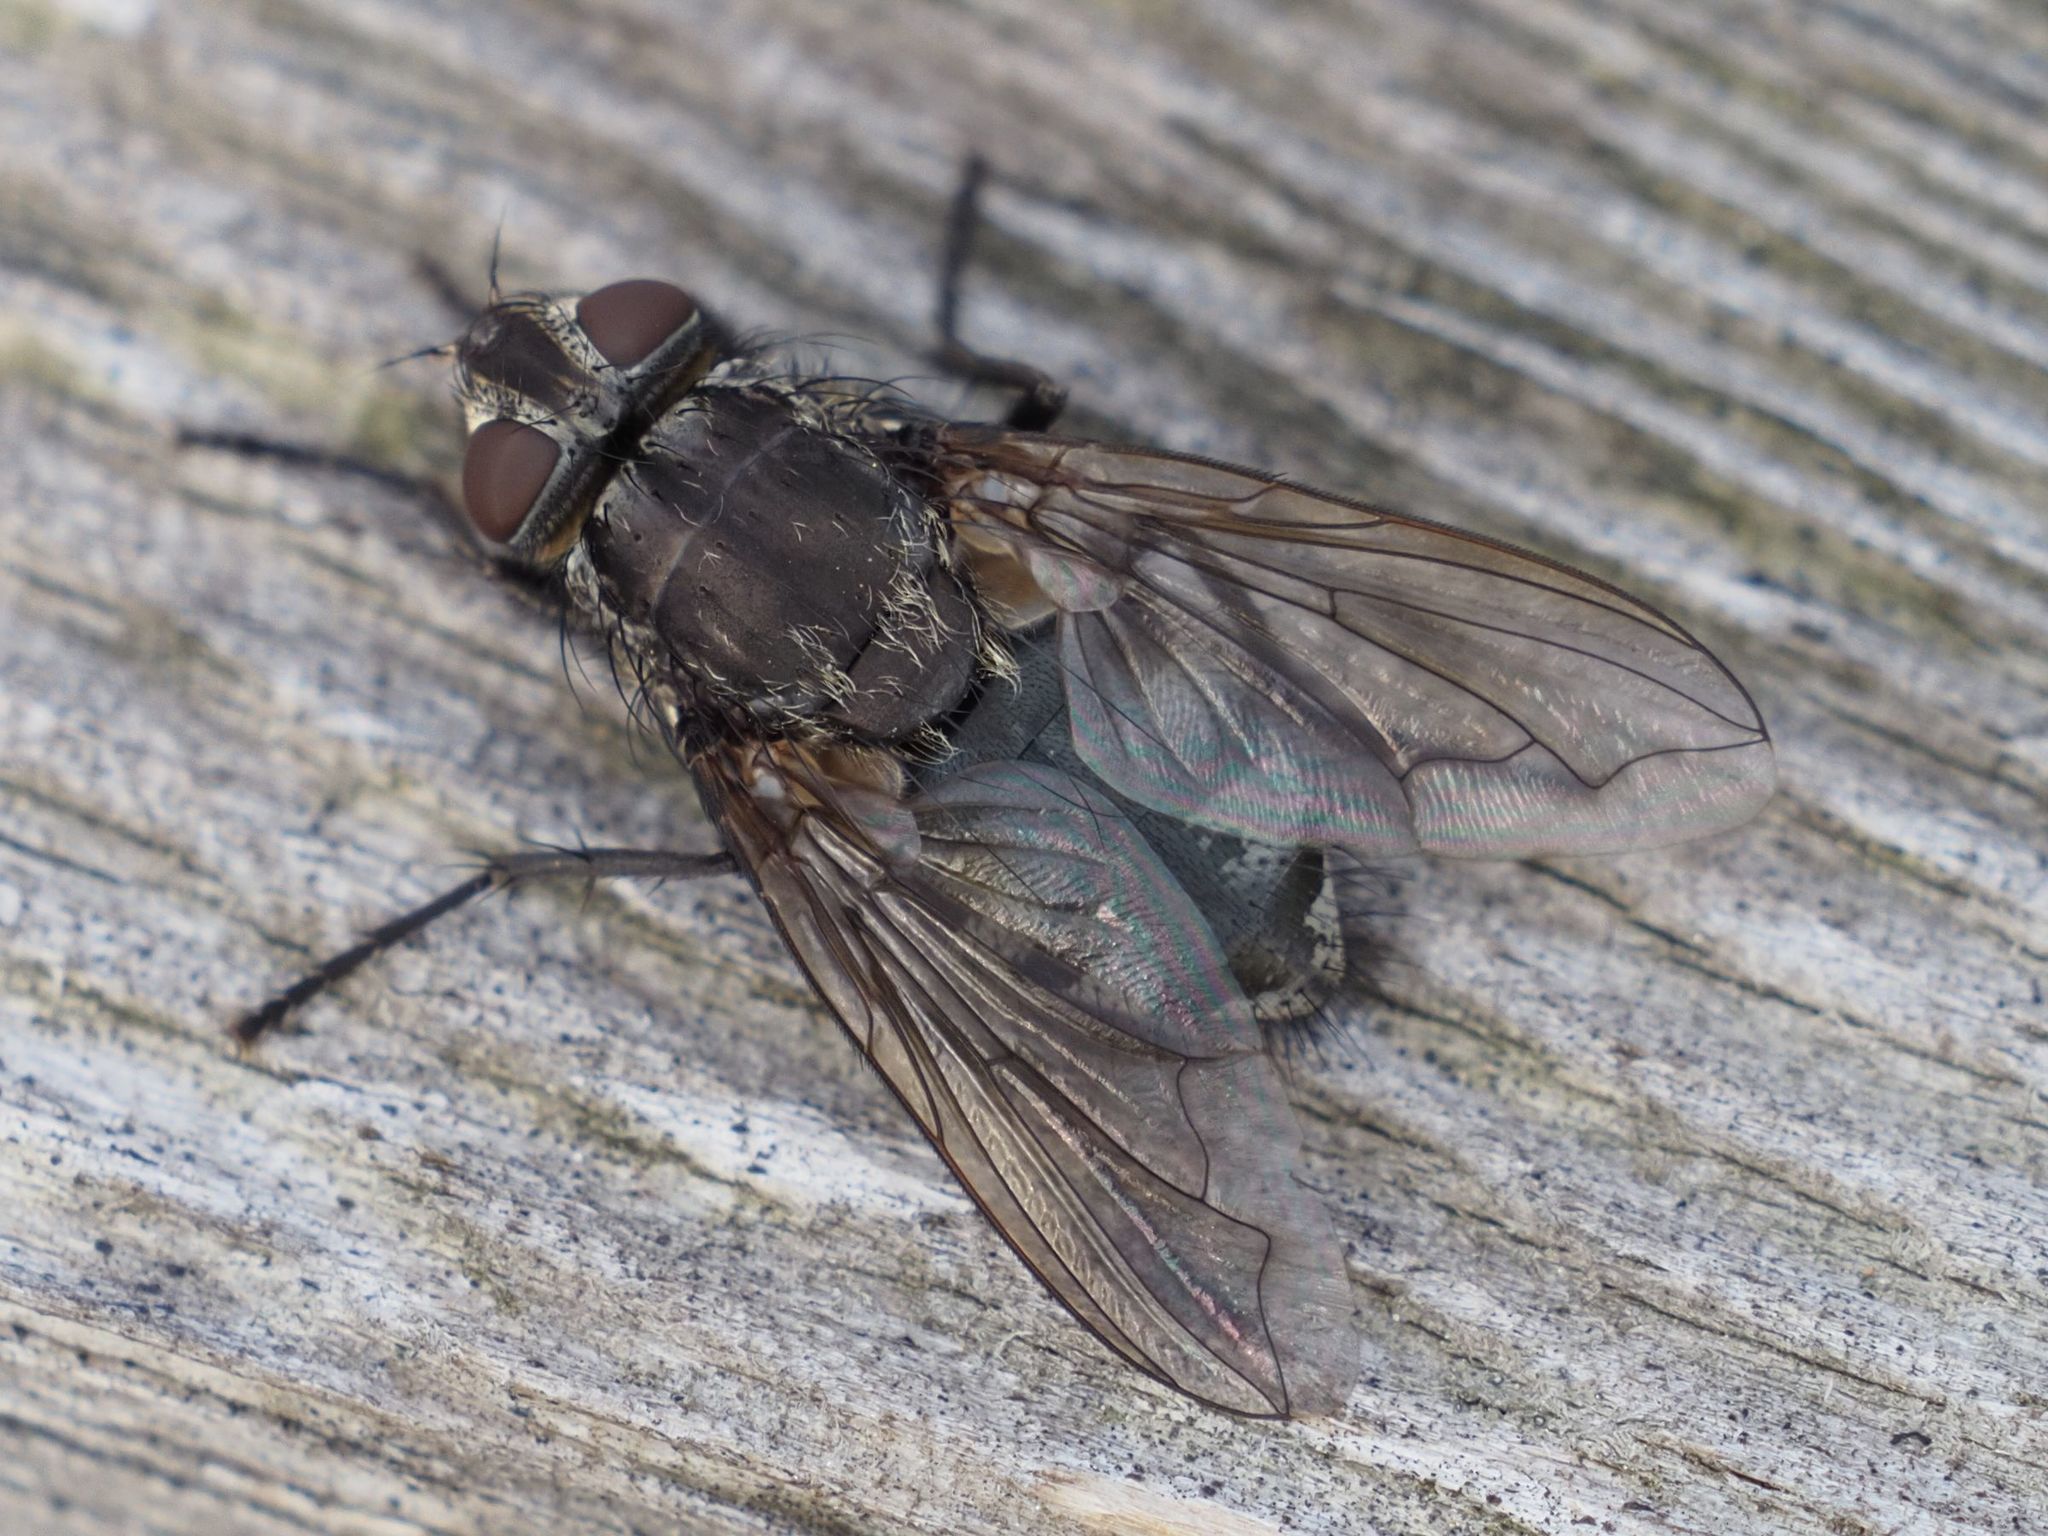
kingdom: Animalia
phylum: Arthropoda
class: Insecta
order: Diptera
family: Polleniidae
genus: Pollenia
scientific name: Pollenia vagabunda
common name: Vagabund cluster fly
